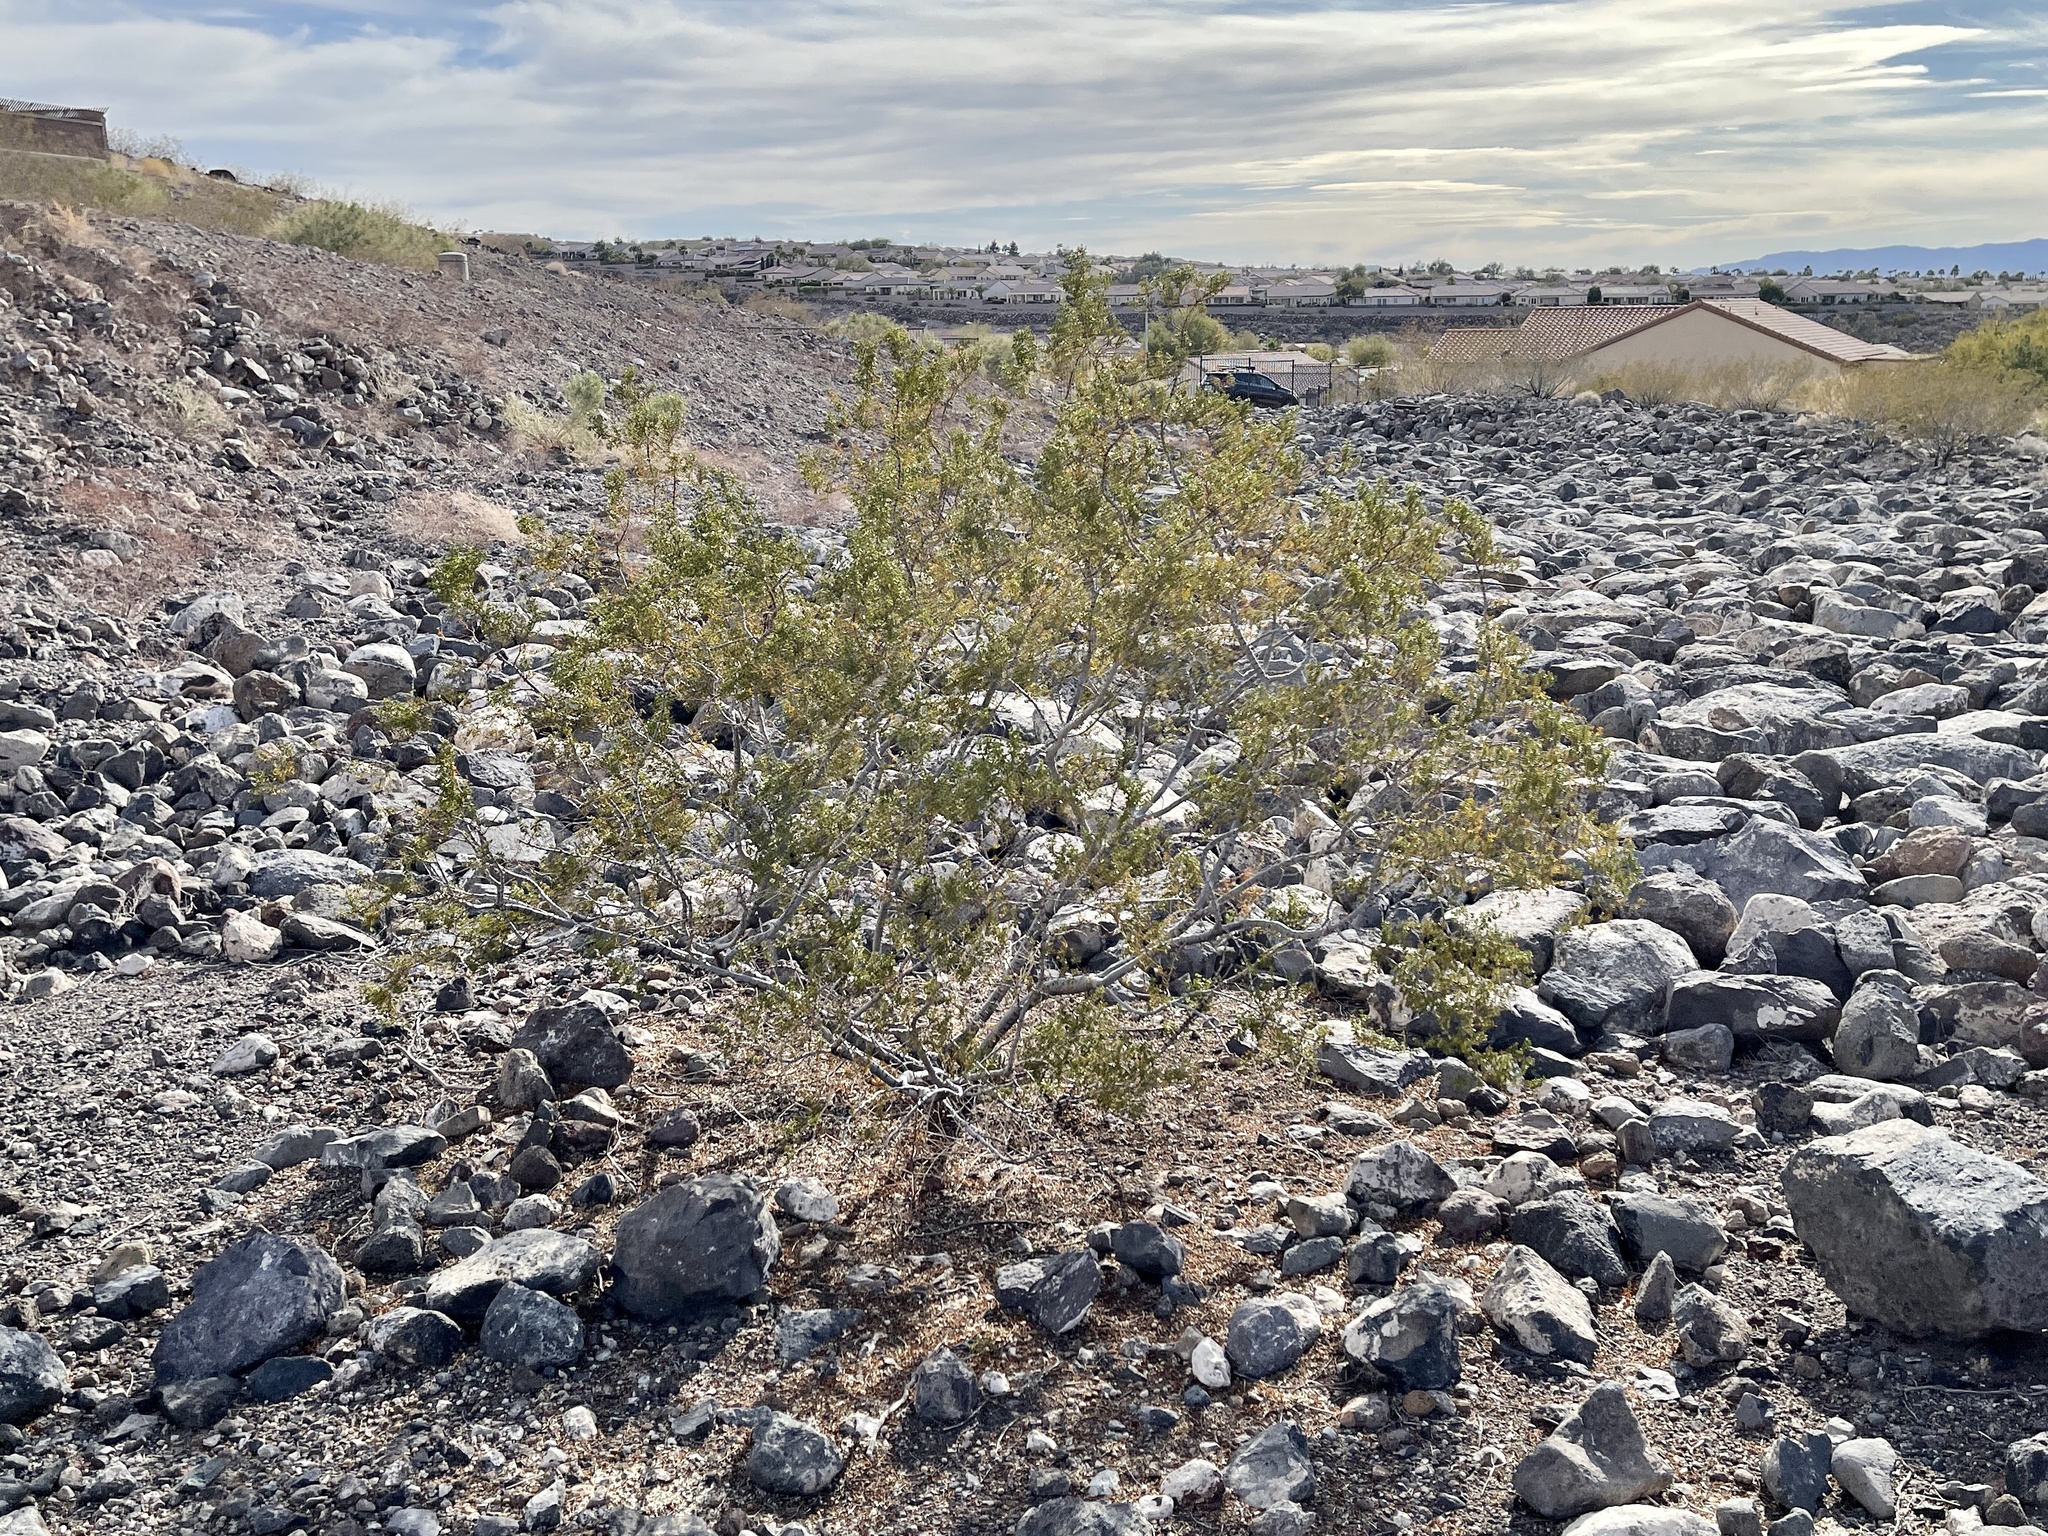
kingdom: Plantae
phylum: Tracheophyta
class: Magnoliopsida
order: Zygophyllales
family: Zygophyllaceae
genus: Larrea
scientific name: Larrea tridentata
